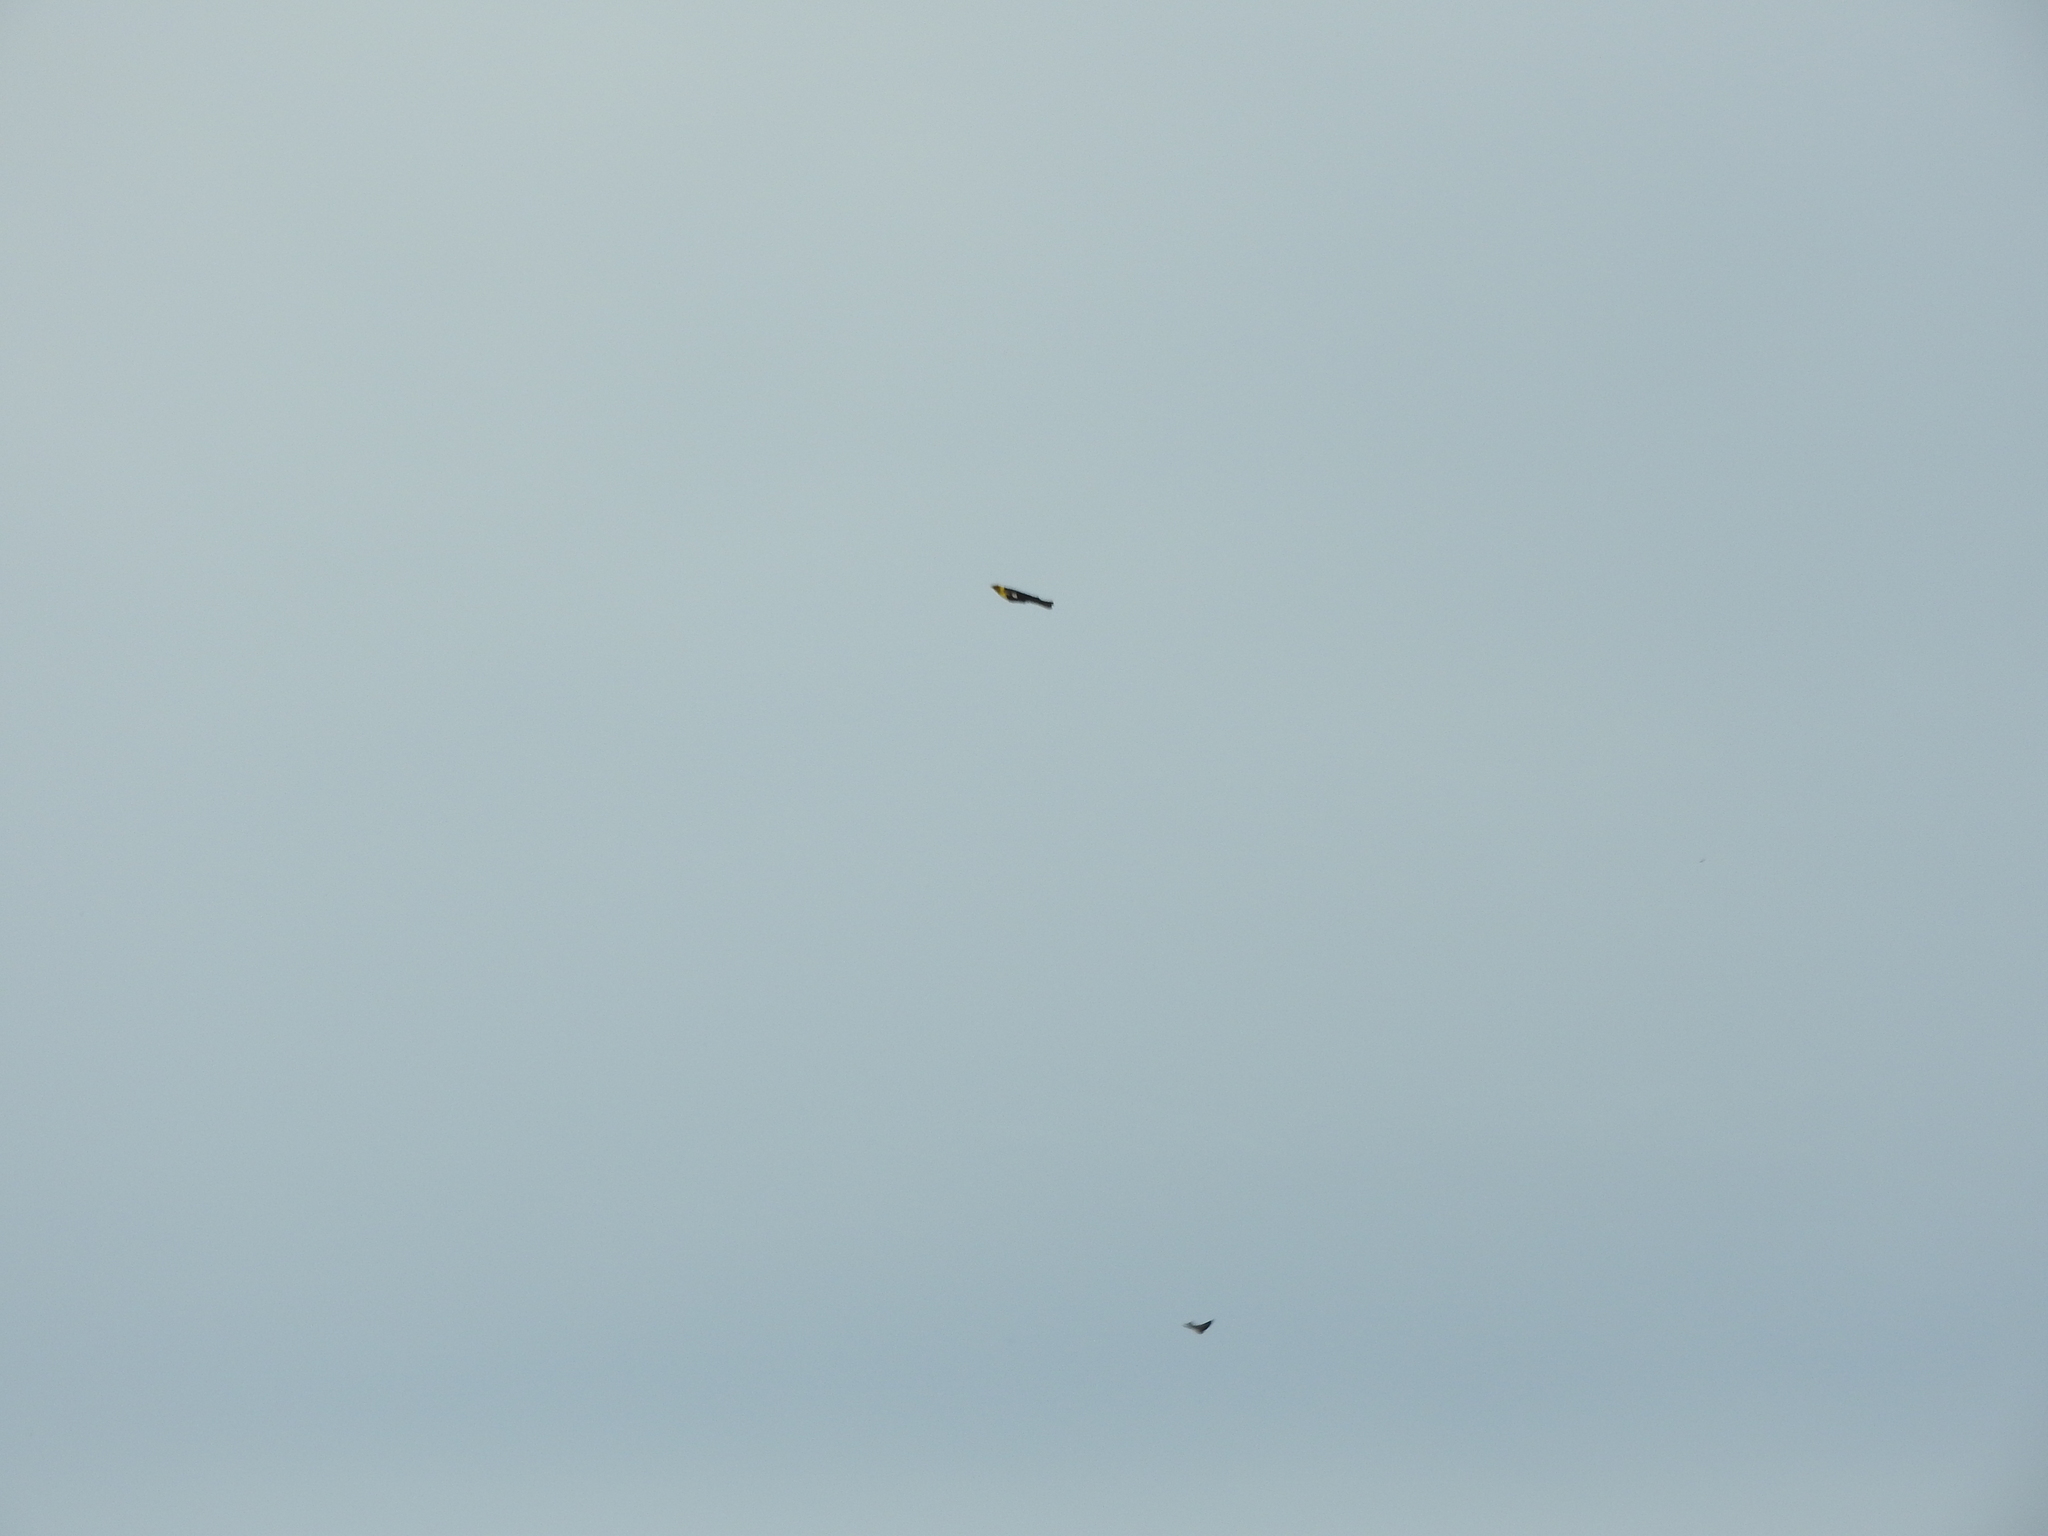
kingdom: Animalia
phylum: Chordata
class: Aves
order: Passeriformes
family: Icteridae
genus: Xanthocephalus
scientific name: Xanthocephalus xanthocephalus
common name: Yellow-headed blackbird
